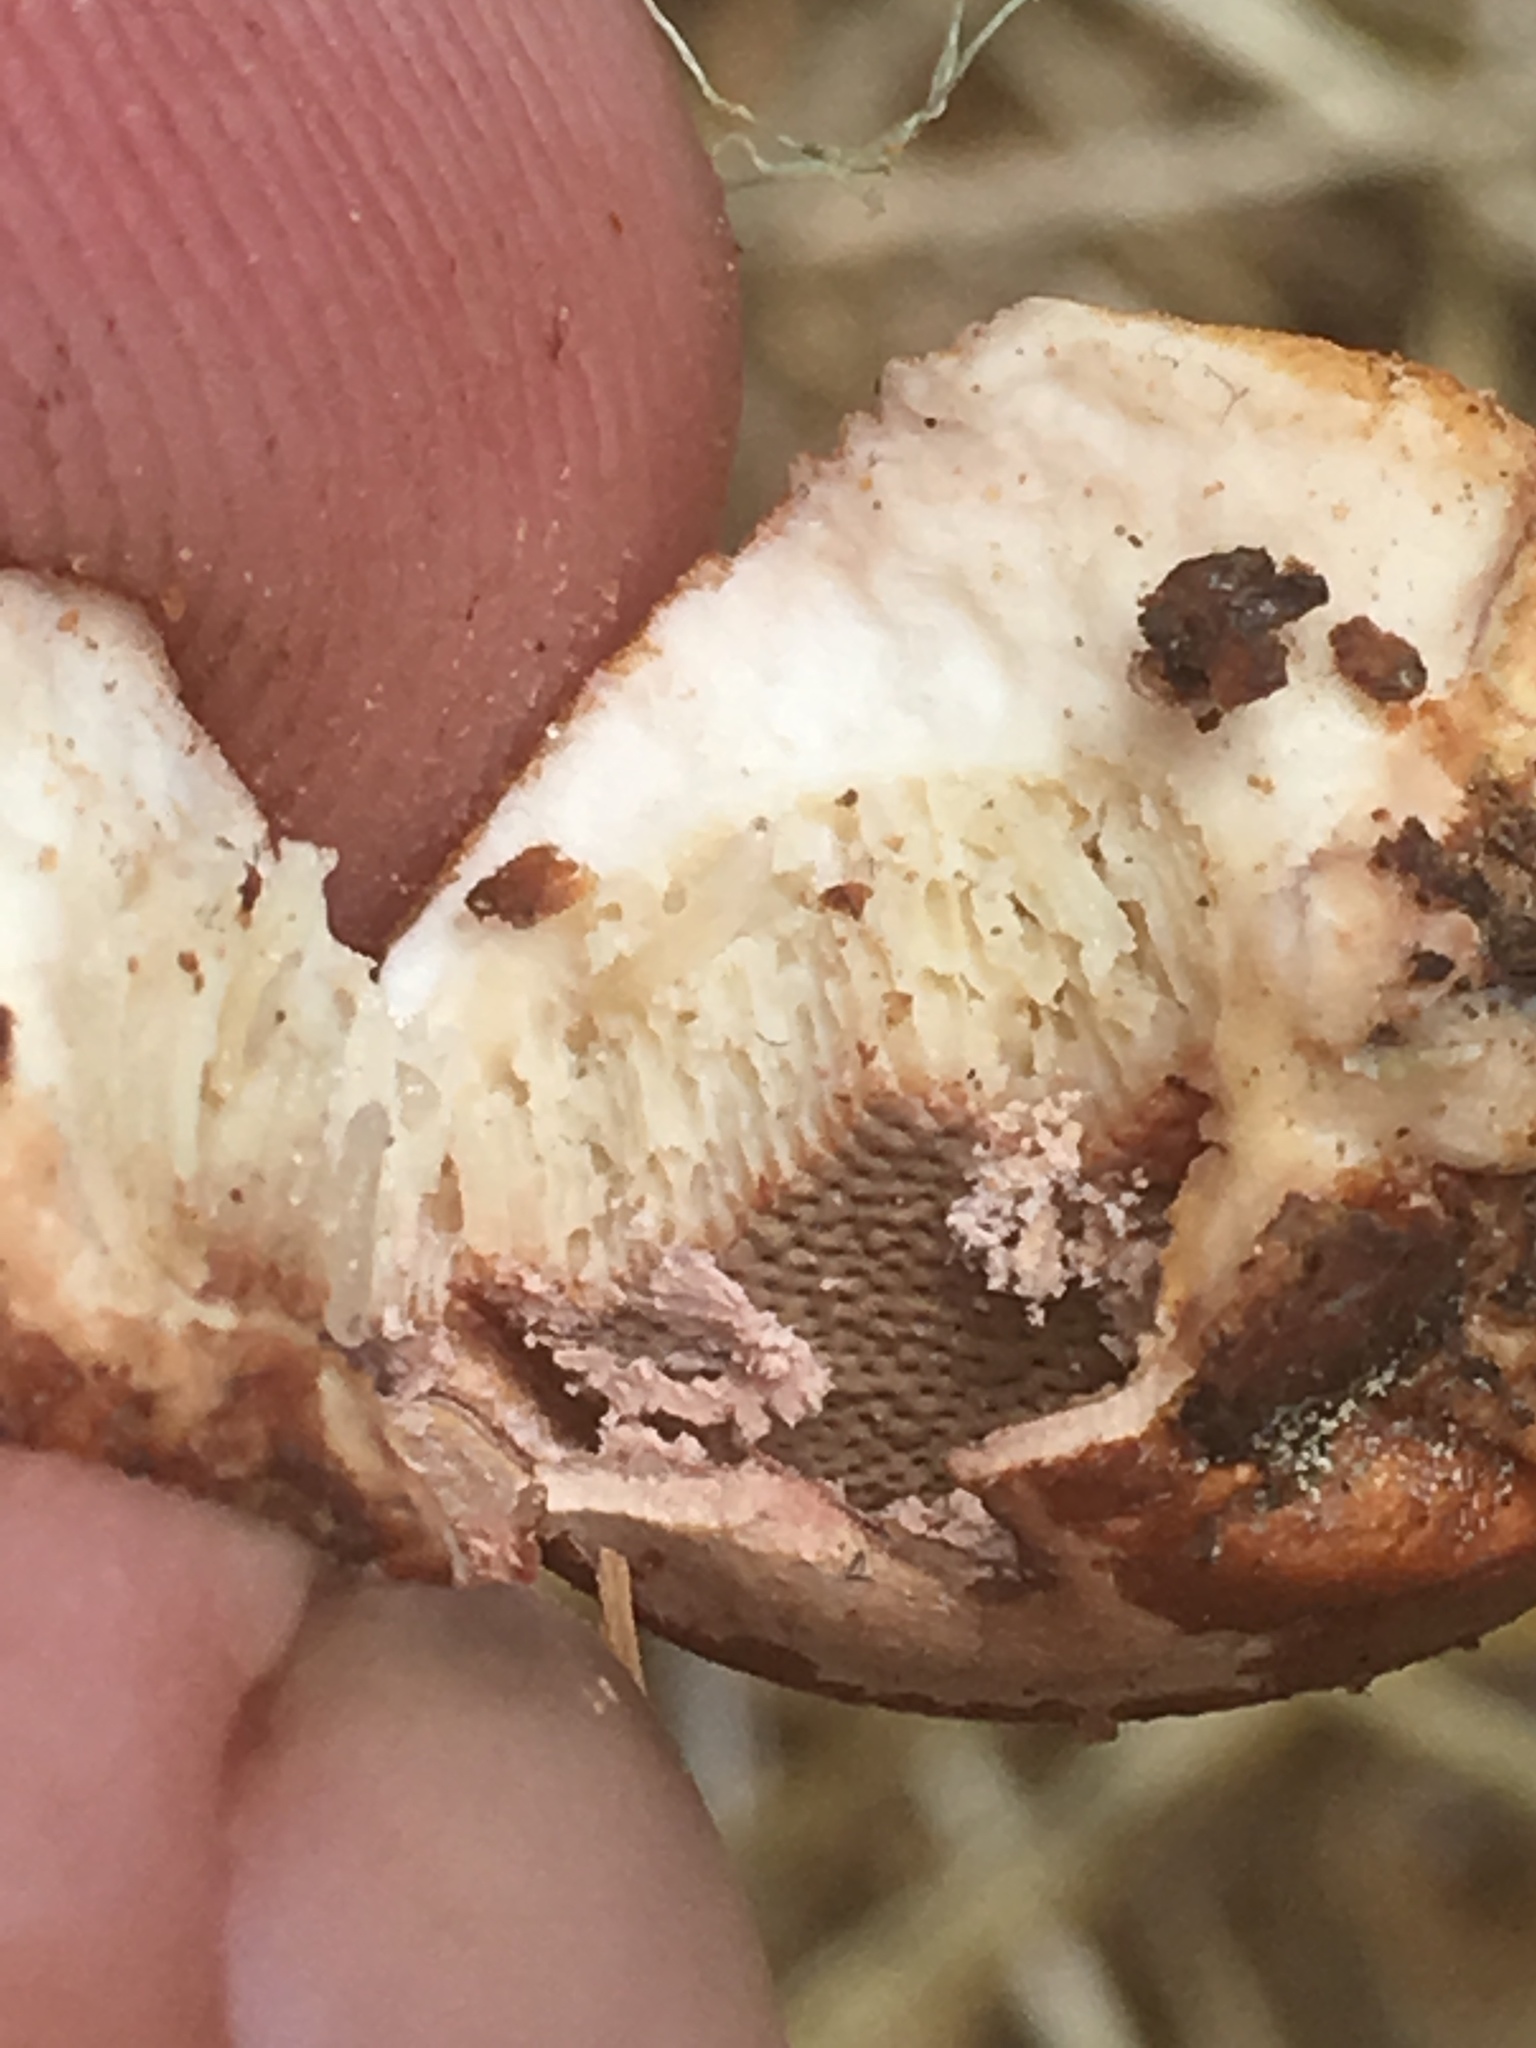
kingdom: Fungi
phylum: Basidiomycota
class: Agaricomycetes
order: Polyporales
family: Polyporaceae
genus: Cryptoporus
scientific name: Cryptoporus volvatus
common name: Veiled polypore
